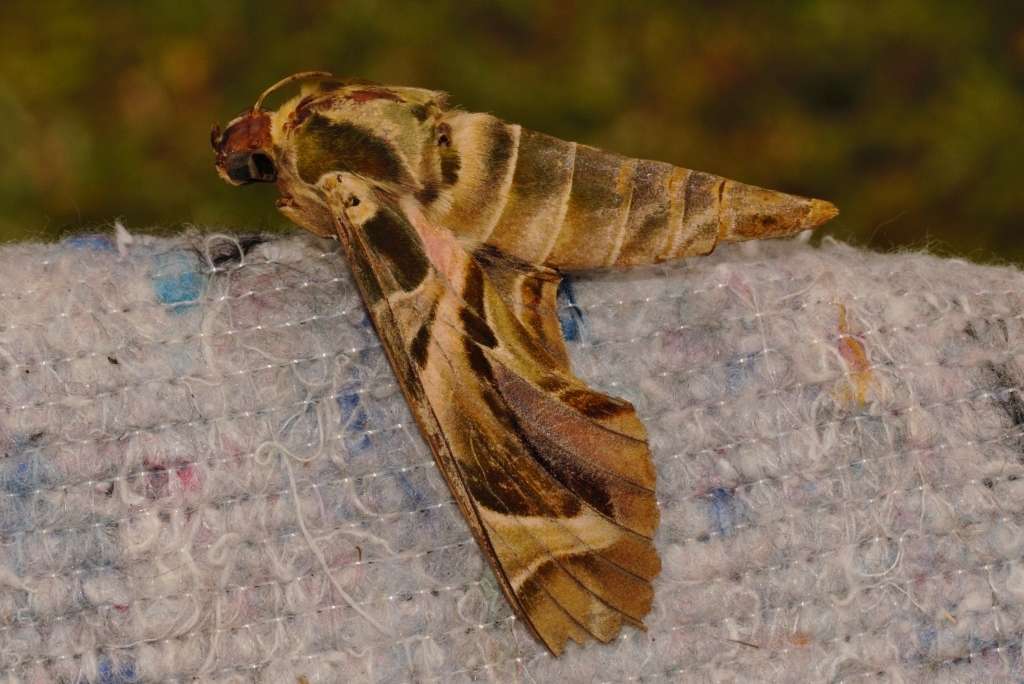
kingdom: Animalia
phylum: Arthropoda
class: Insecta
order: Lepidoptera
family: Sphingidae
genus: Daphnis
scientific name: Daphnis nerii
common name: Oleander hawk-moth
